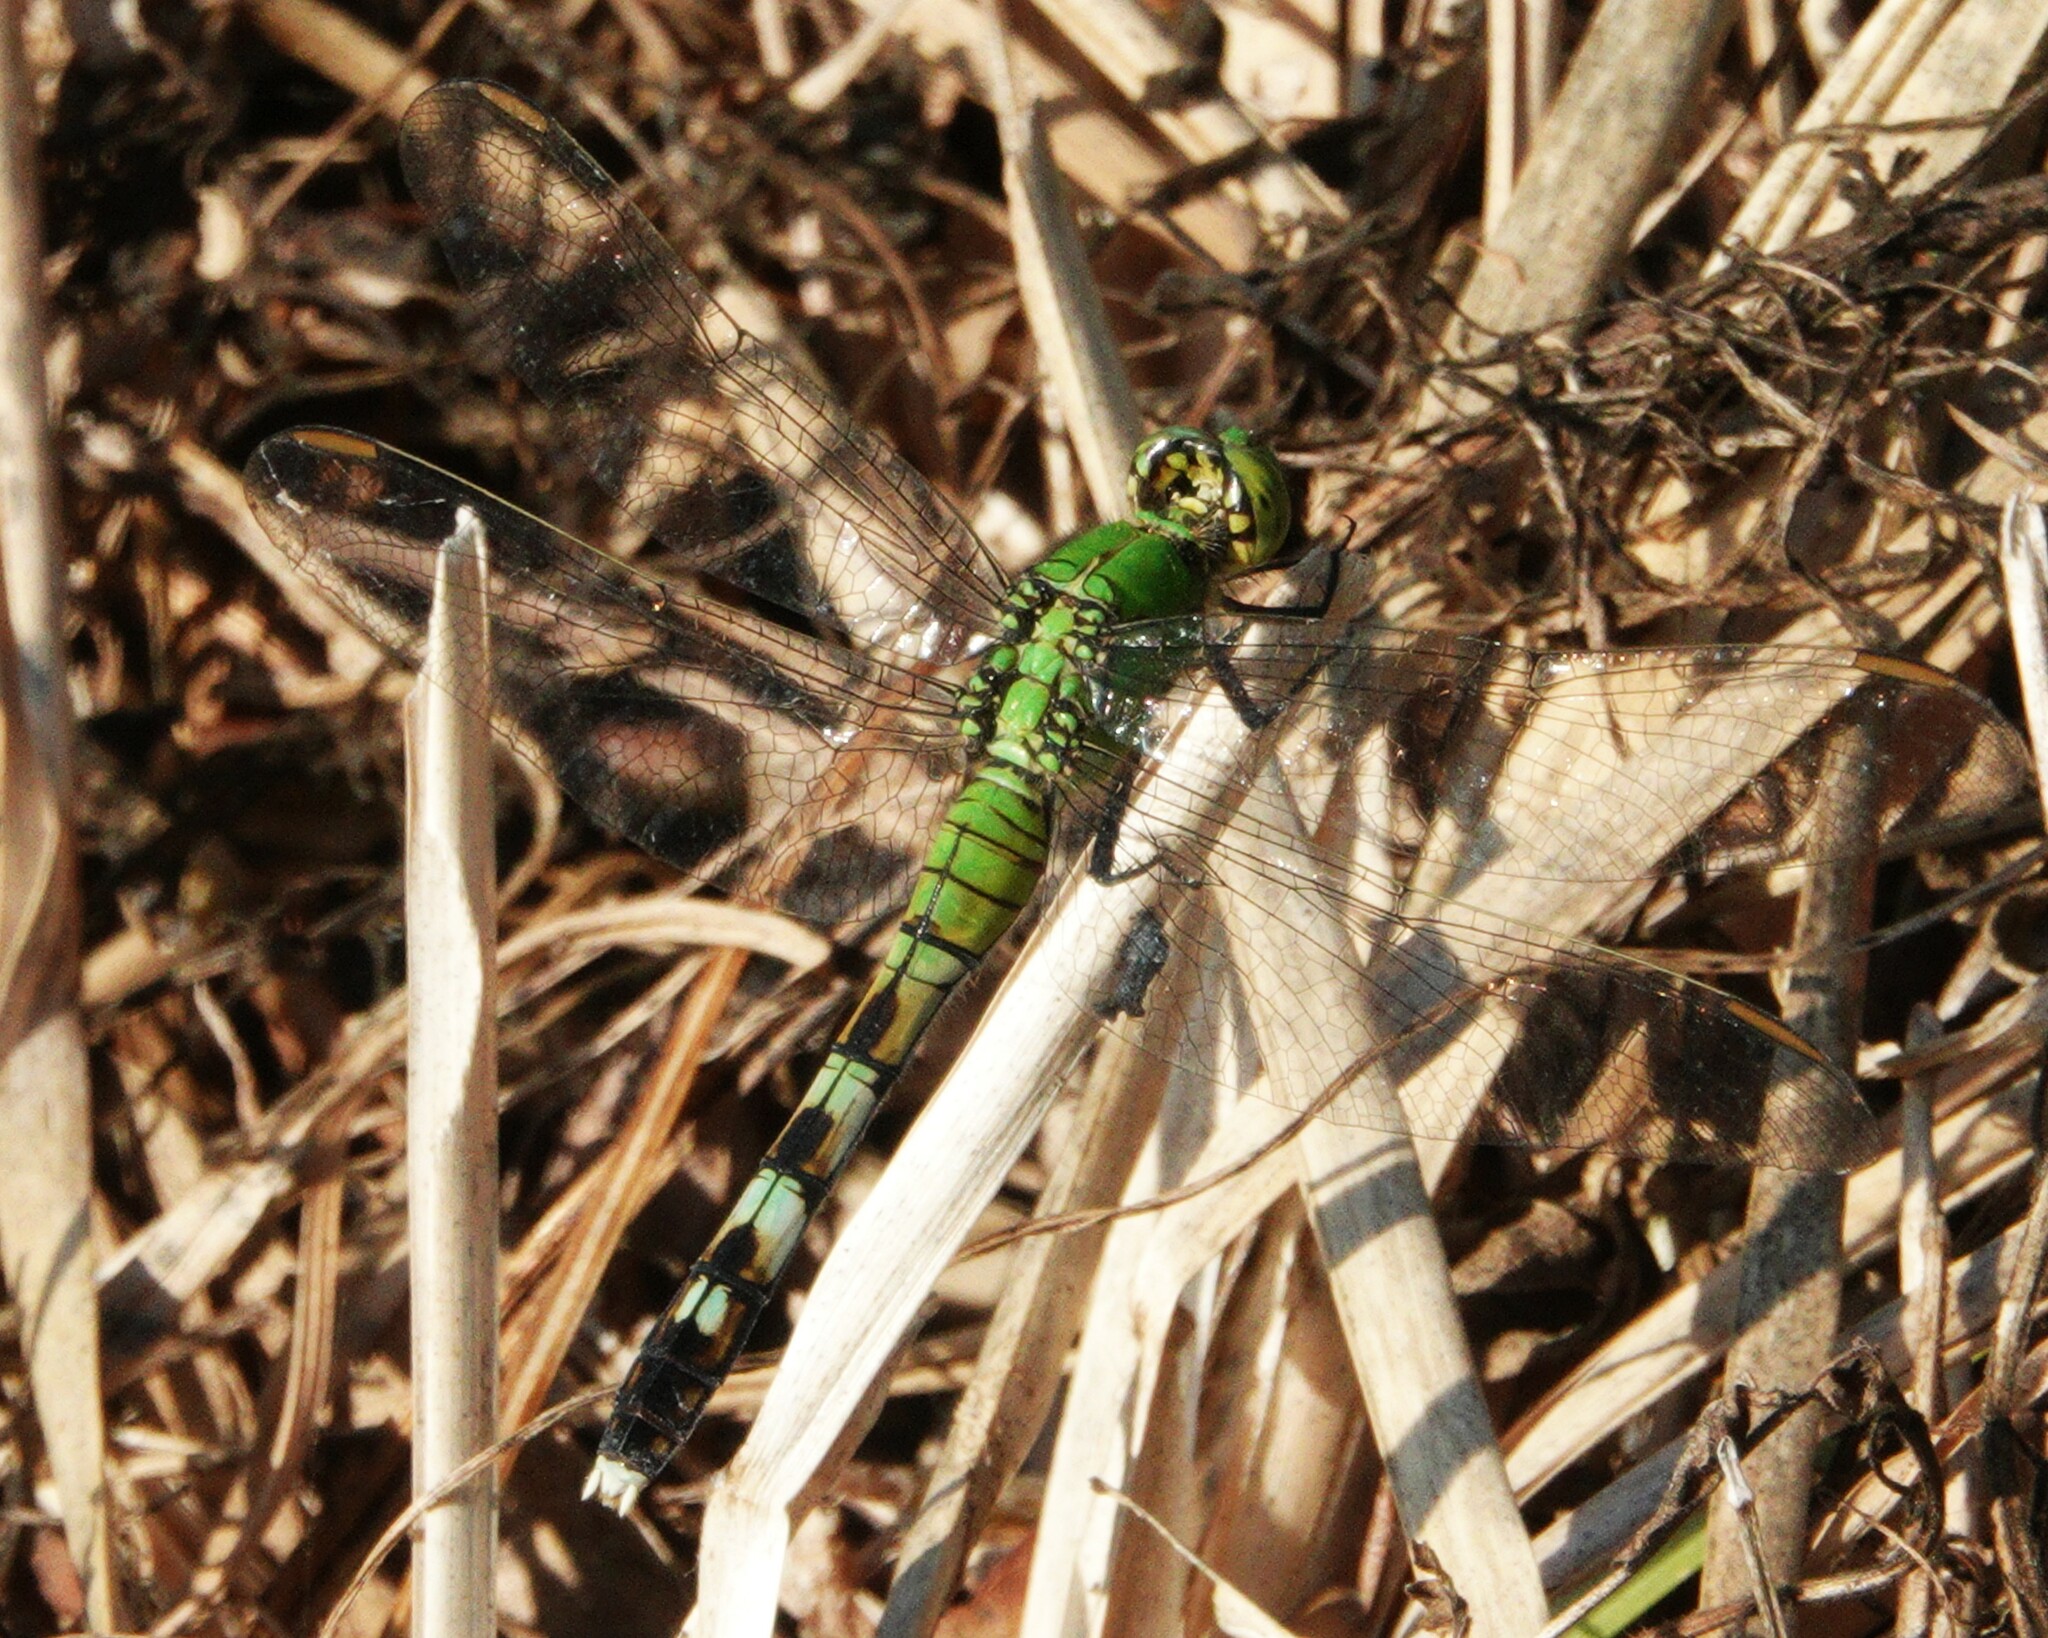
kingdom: Animalia
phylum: Arthropoda
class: Insecta
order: Odonata
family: Libellulidae
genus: Erythemis
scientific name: Erythemis simplicicollis
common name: Eastern pondhawk
